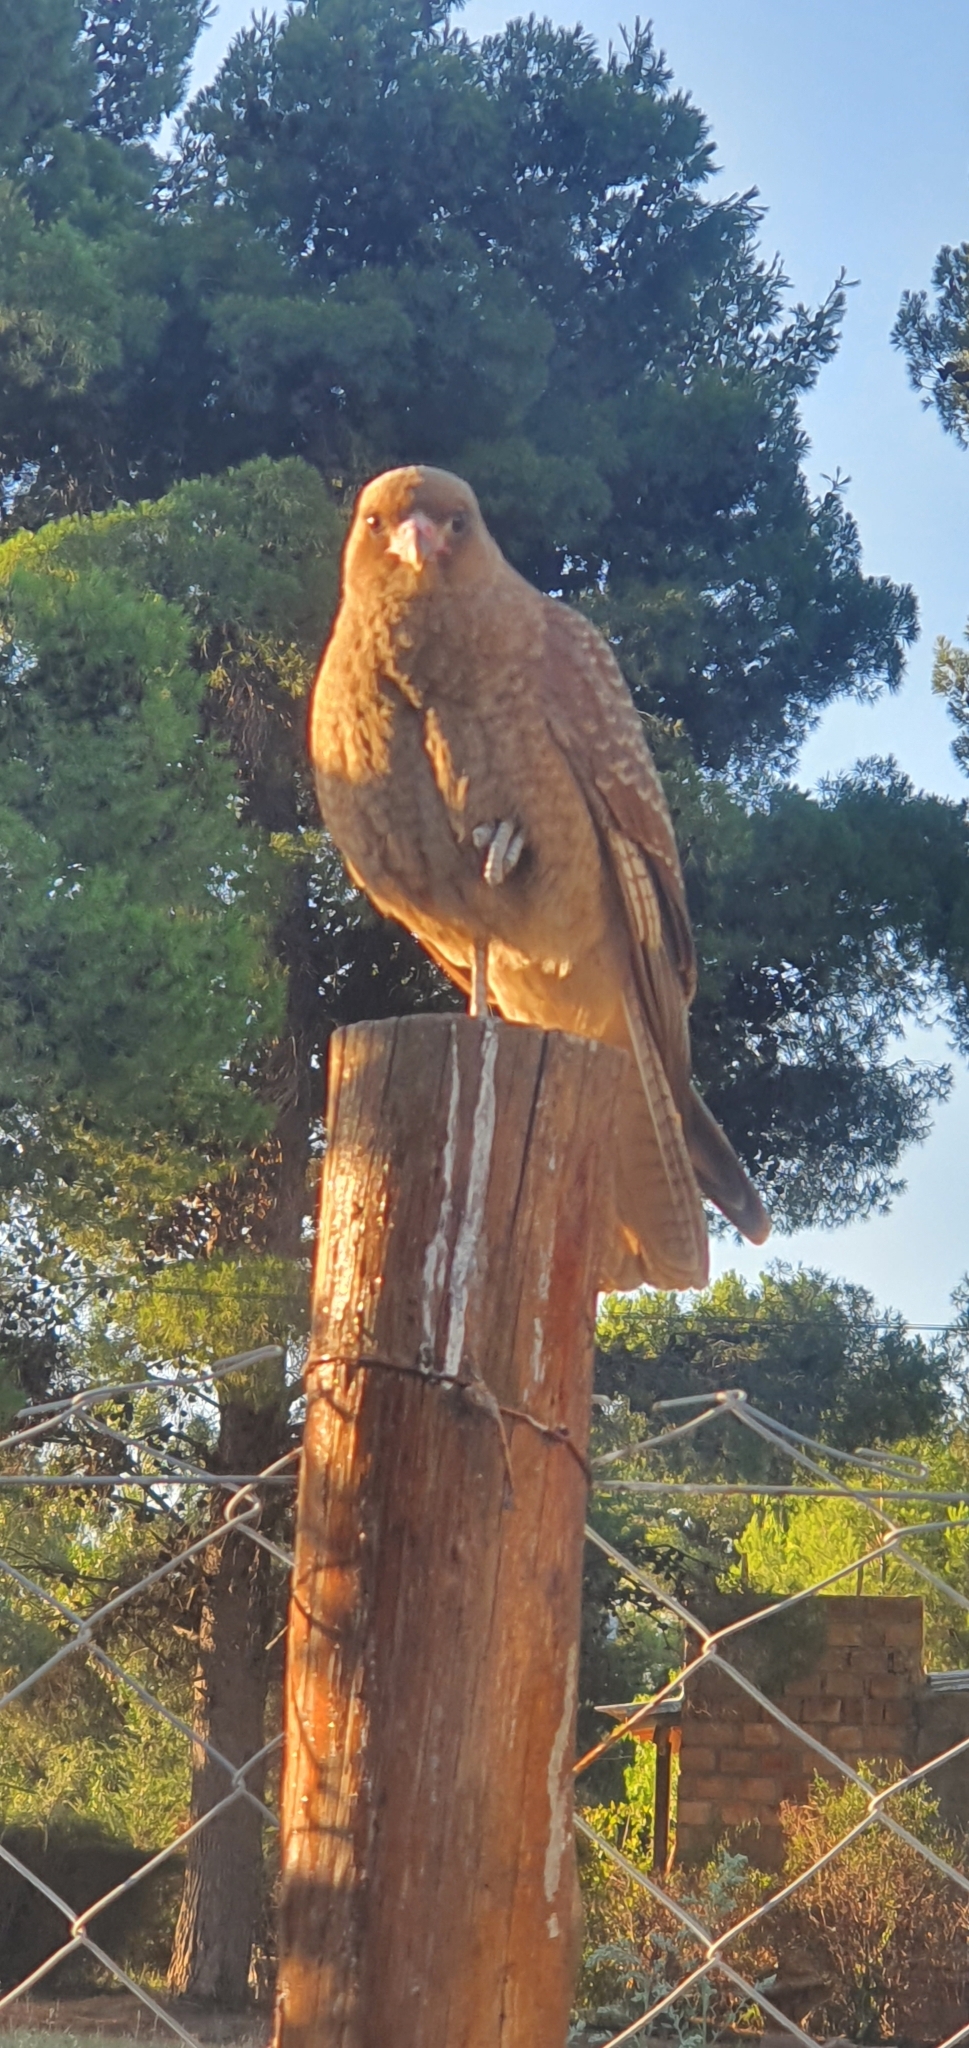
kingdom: Animalia
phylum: Chordata
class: Aves
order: Falconiformes
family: Falconidae
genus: Daptrius
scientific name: Daptrius
